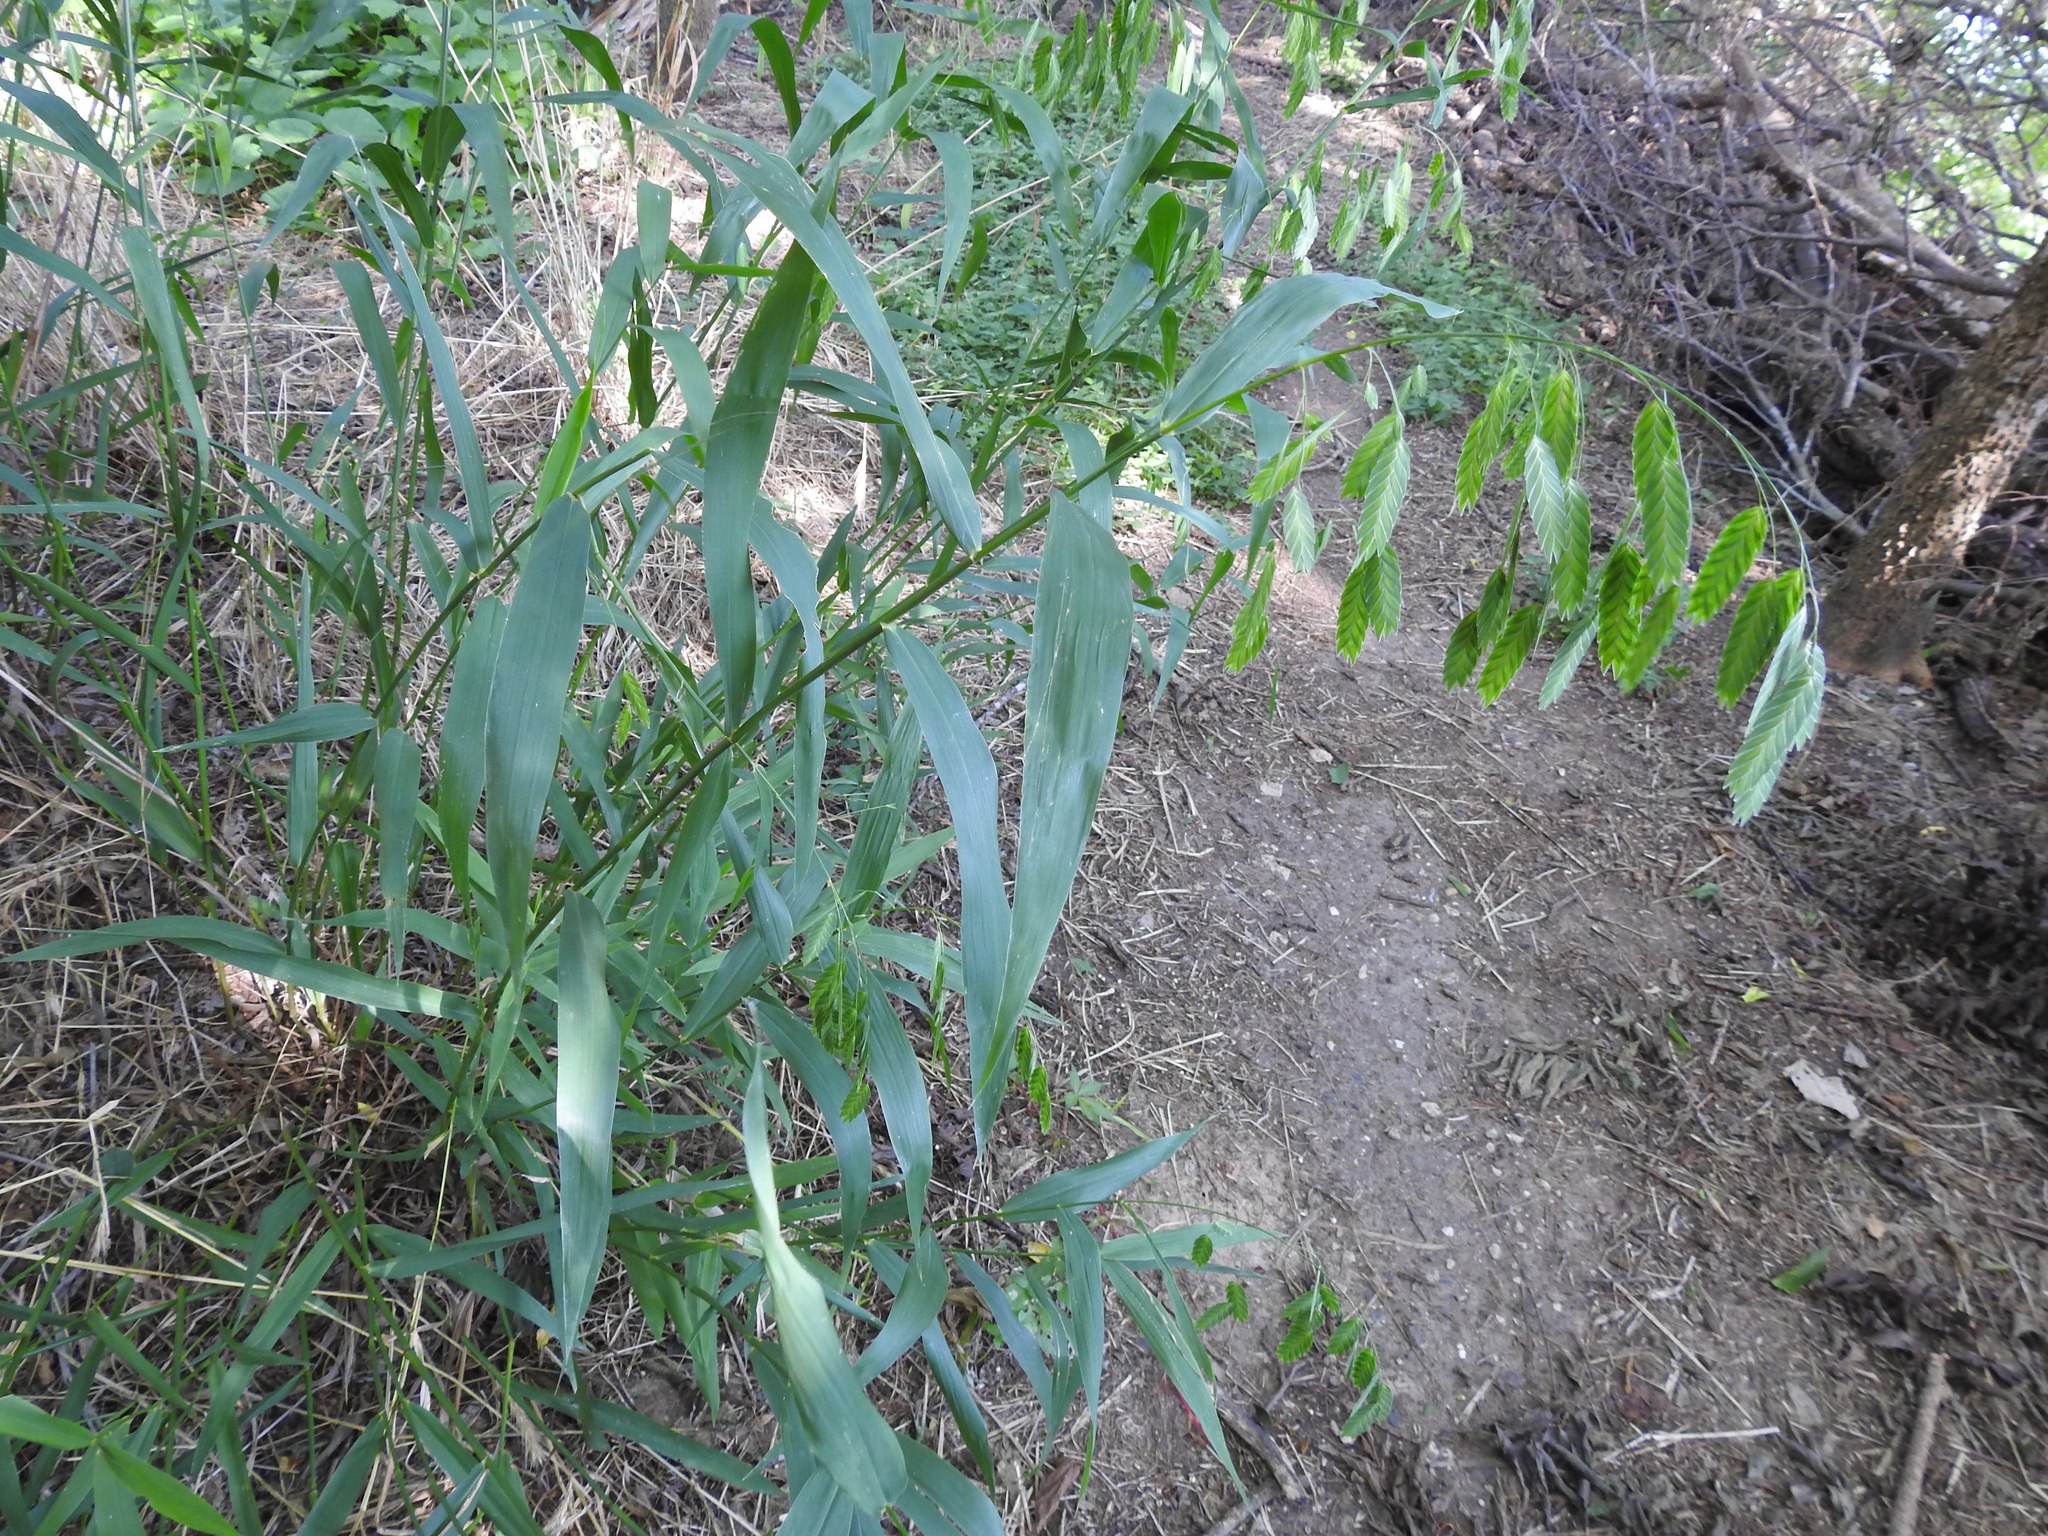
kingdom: Plantae
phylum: Tracheophyta
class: Liliopsida
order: Poales
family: Poaceae
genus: Chasmanthium
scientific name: Chasmanthium latifolium
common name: Broad-leaved chasmanthium
